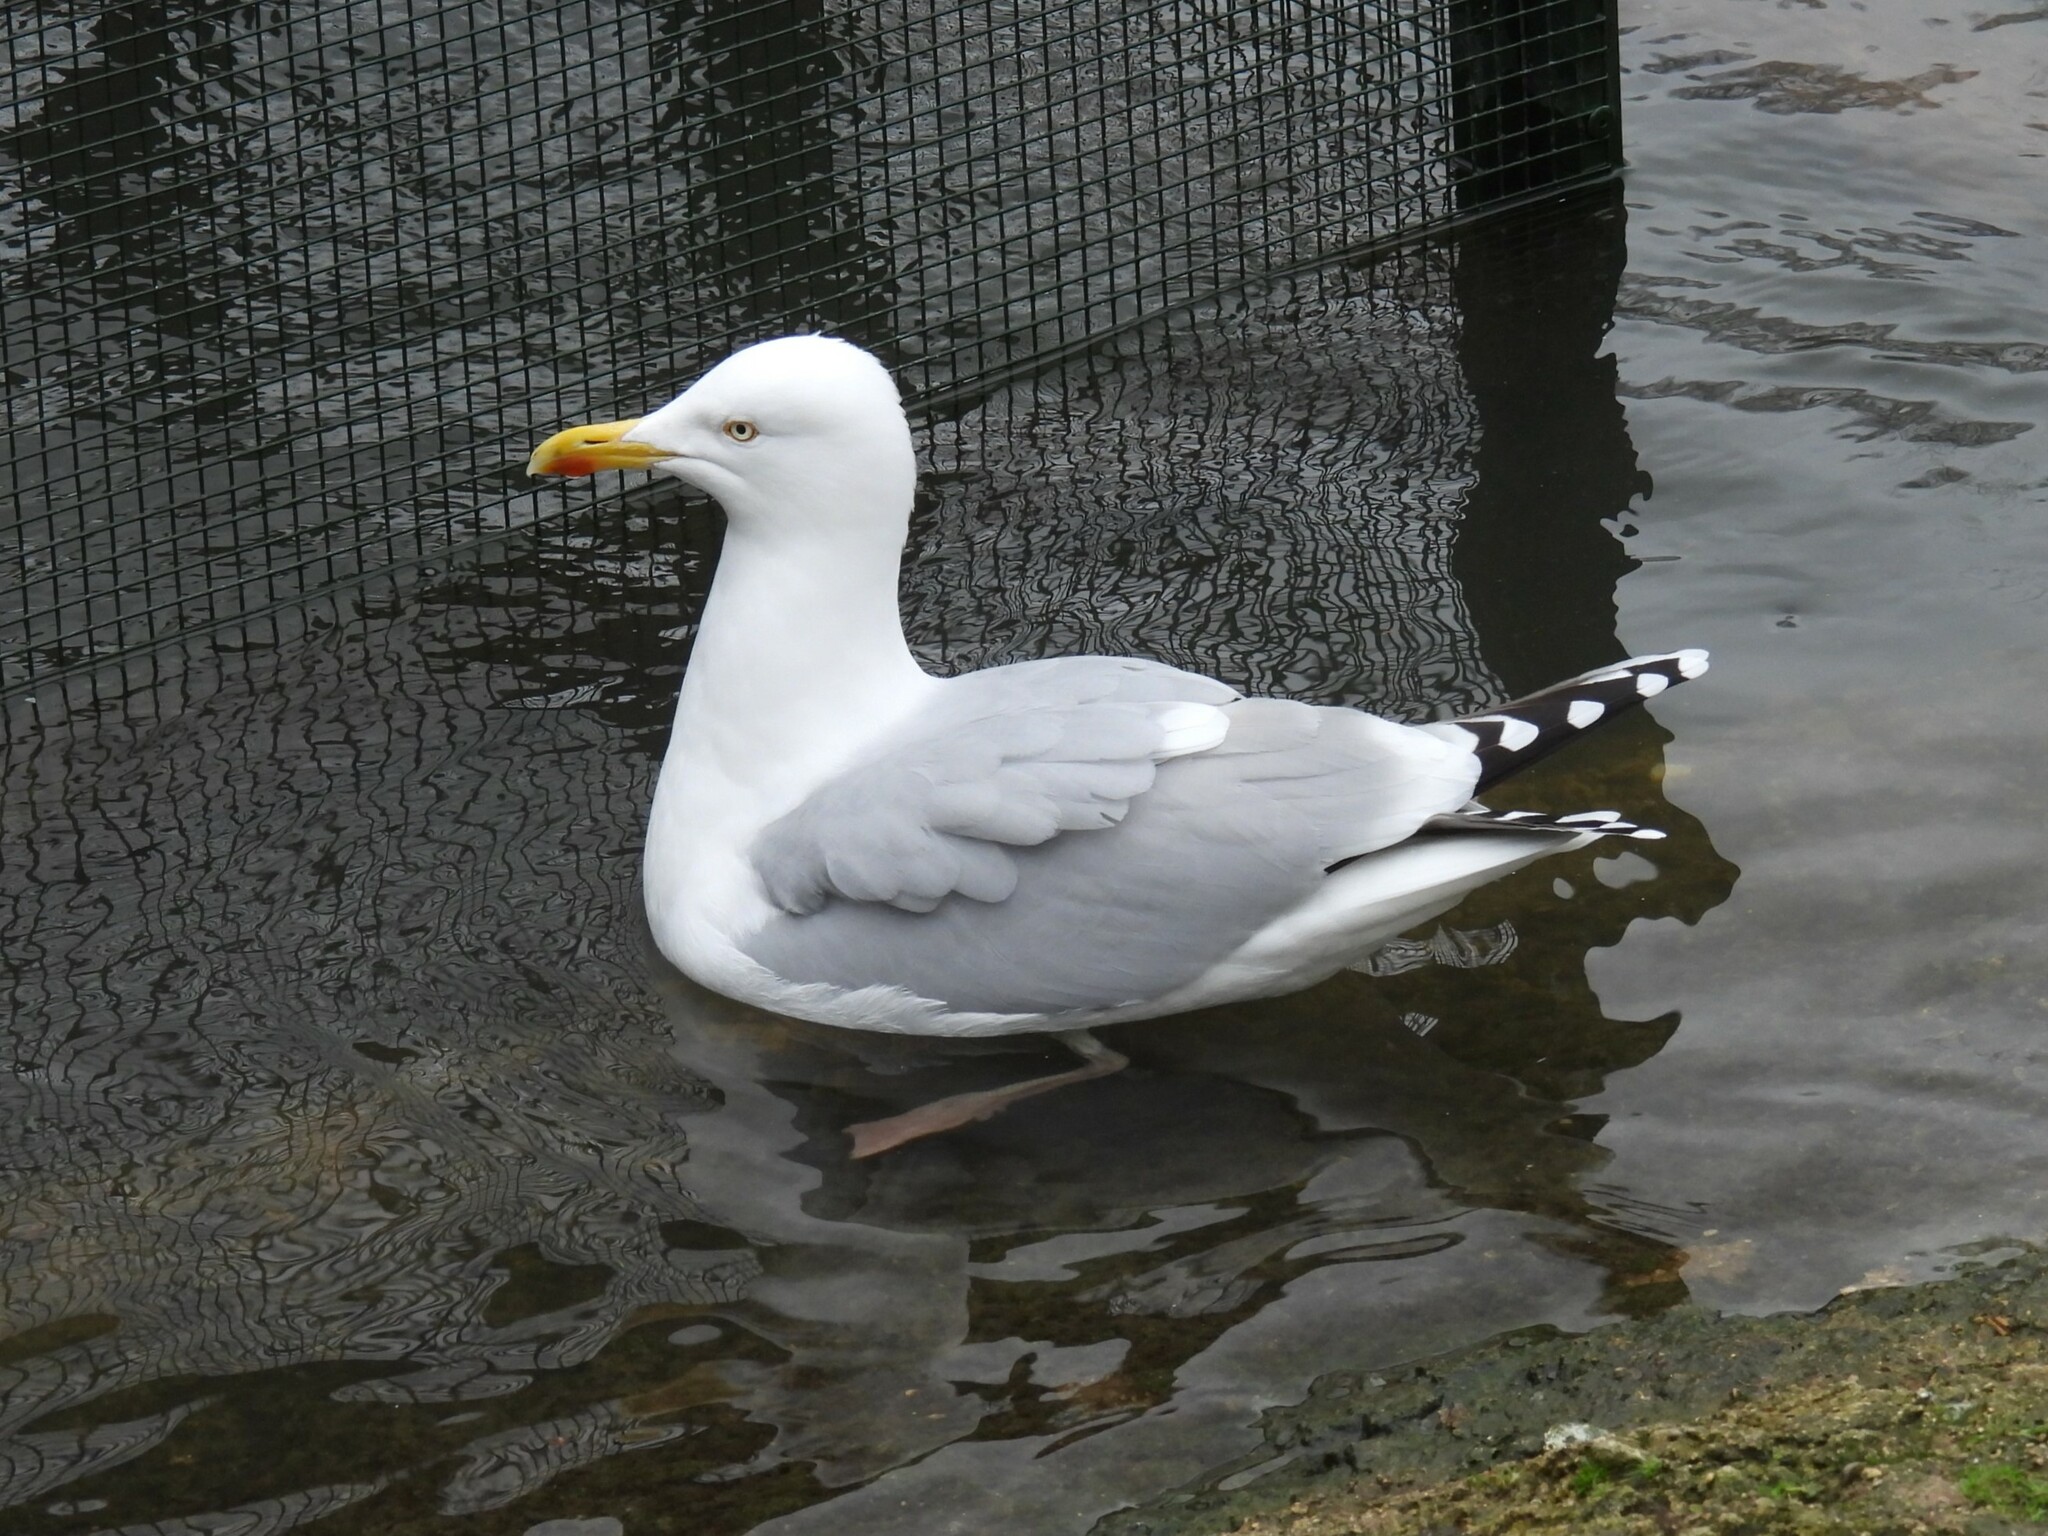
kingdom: Animalia
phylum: Chordata
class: Aves
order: Charadriiformes
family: Laridae
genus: Larus
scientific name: Larus argentatus
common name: Herring gull
